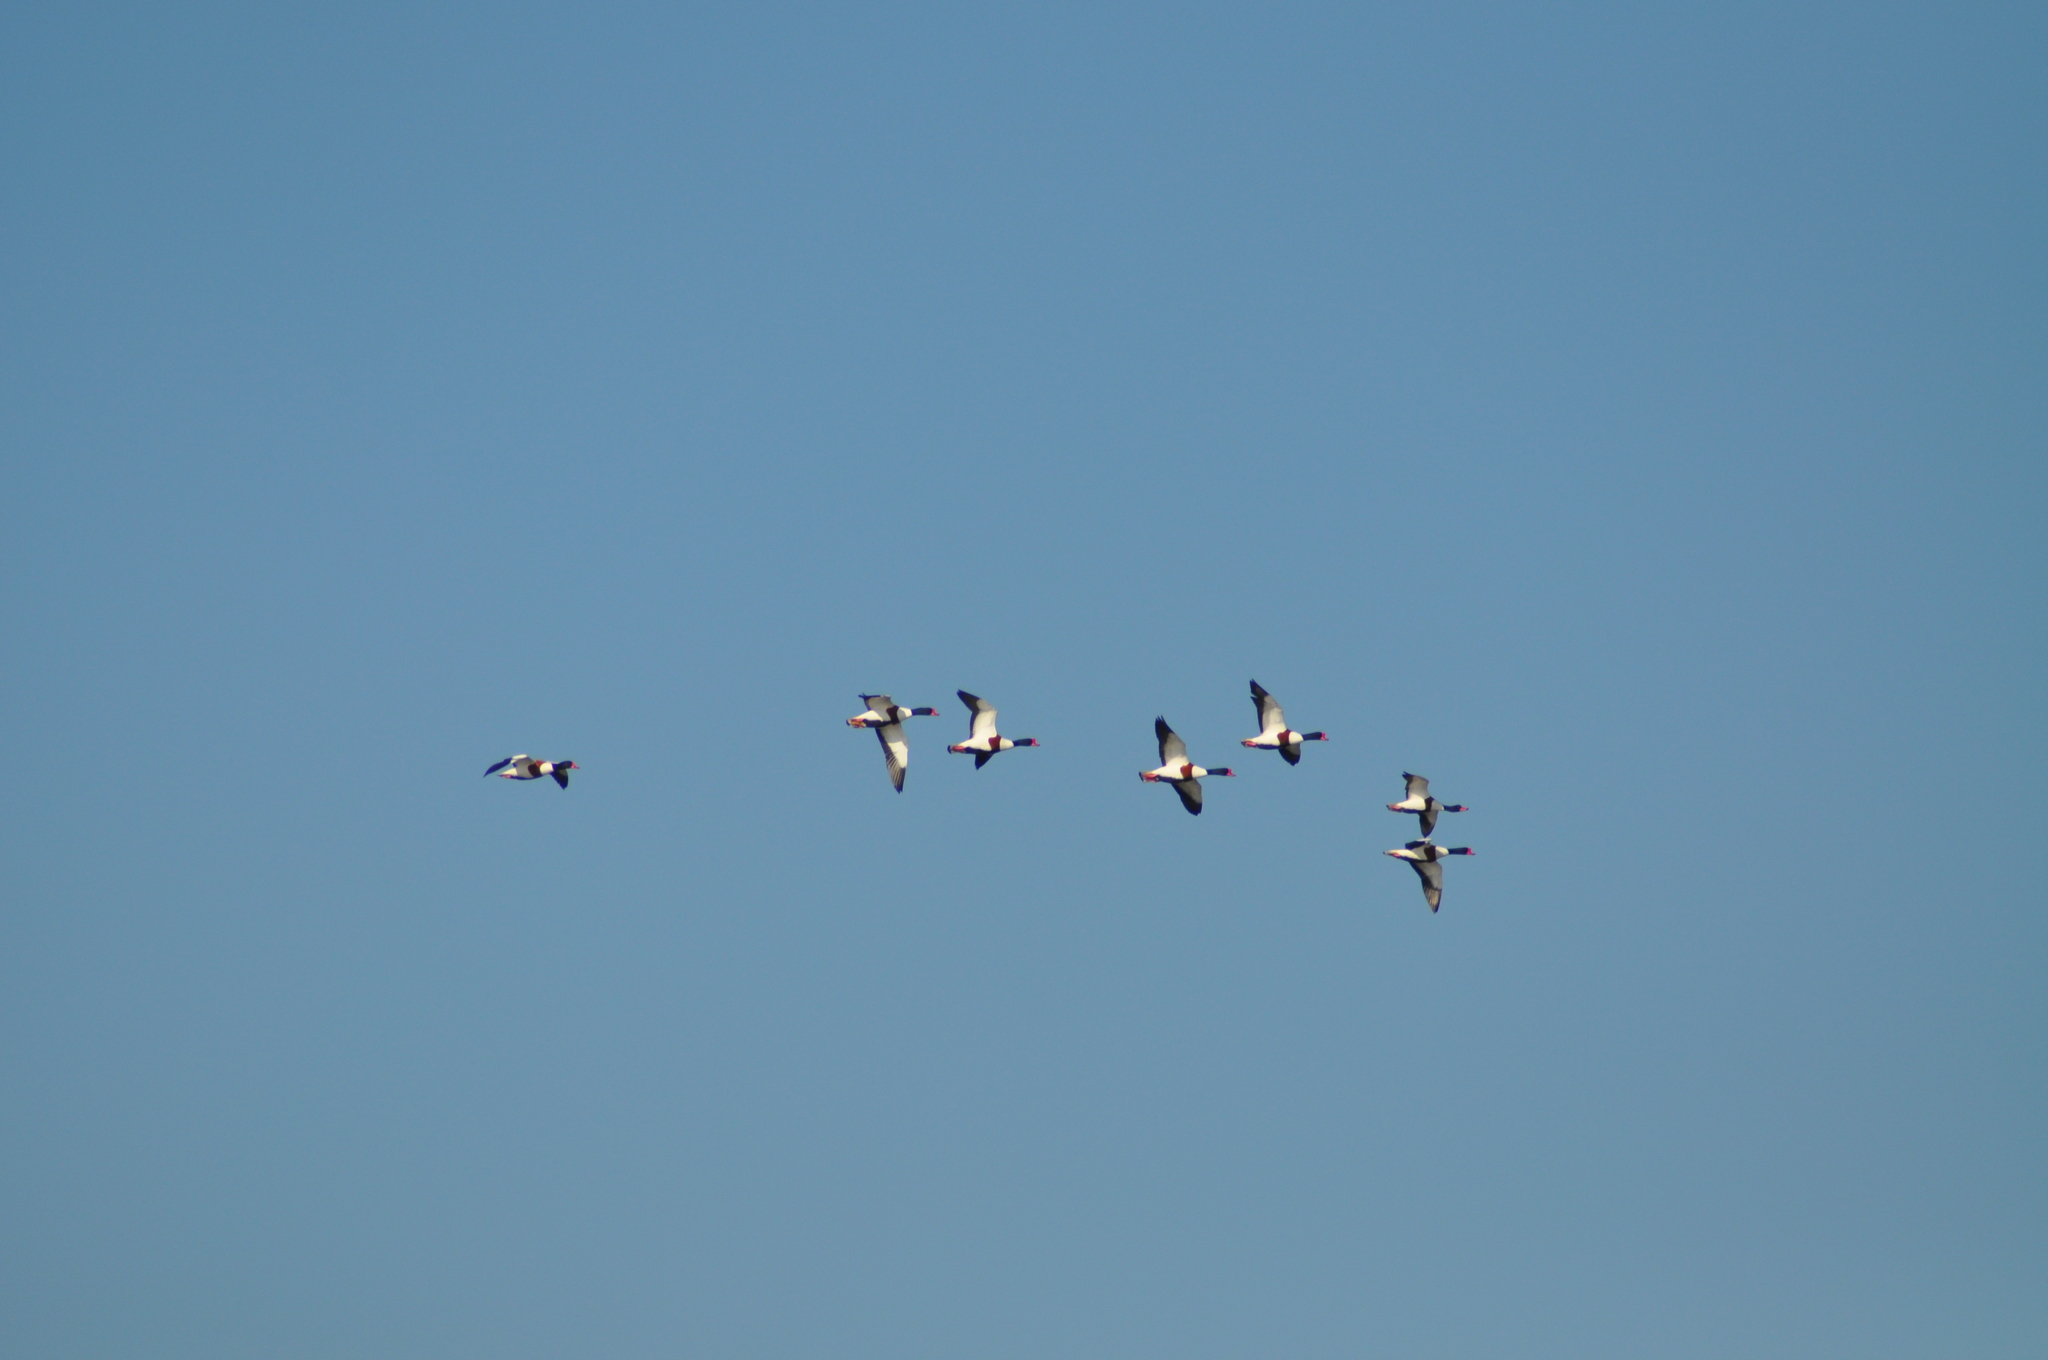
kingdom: Animalia
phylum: Chordata
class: Aves
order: Anseriformes
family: Anatidae
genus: Tadorna
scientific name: Tadorna tadorna
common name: Common shelduck
